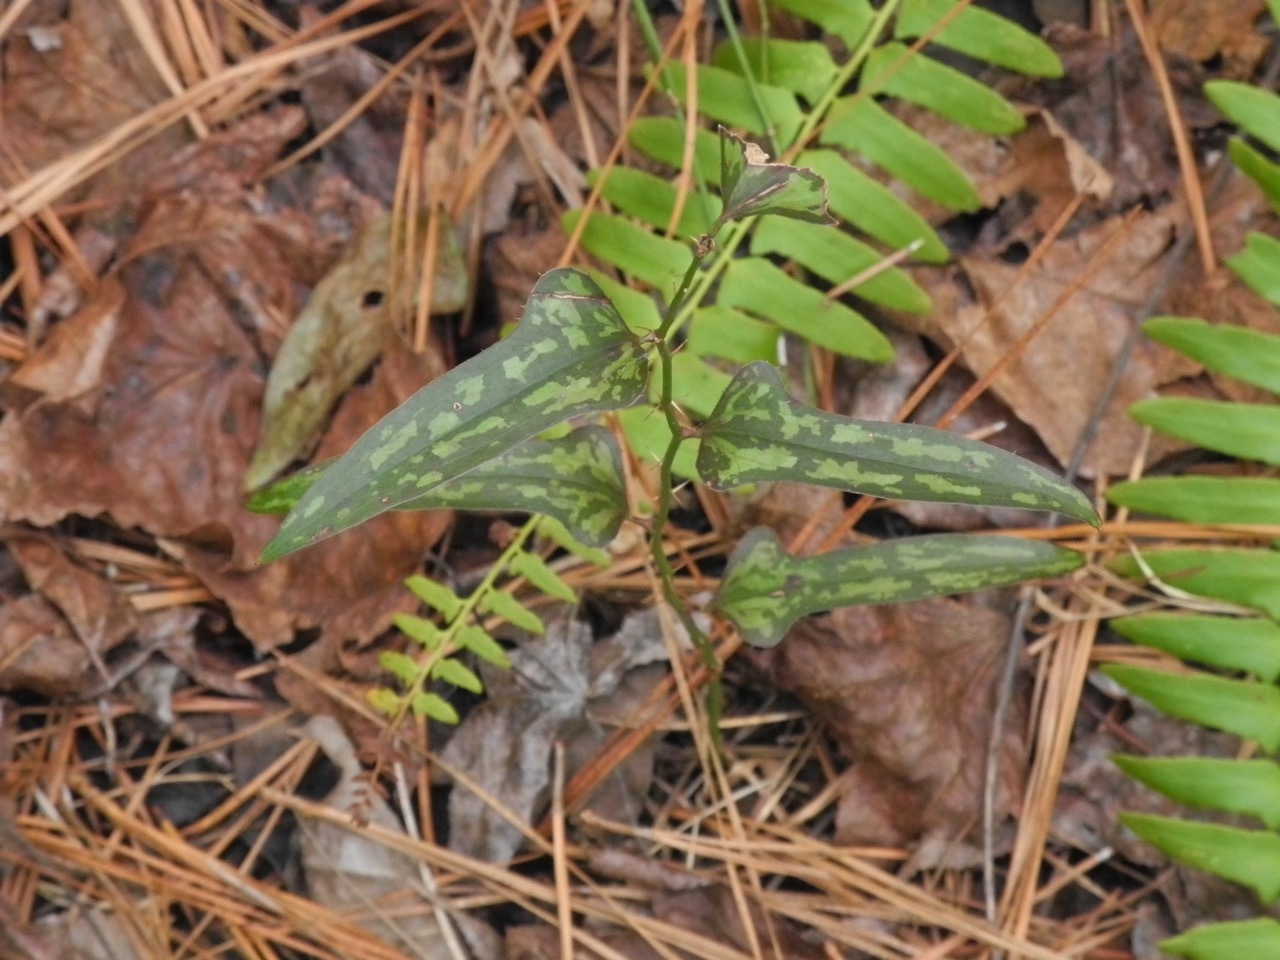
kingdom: Plantae
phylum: Tracheophyta
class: Liliopsida
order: Liliales
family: Smilacaceae
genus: Smilax
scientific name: Smilax bona-nox
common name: Catbrier
